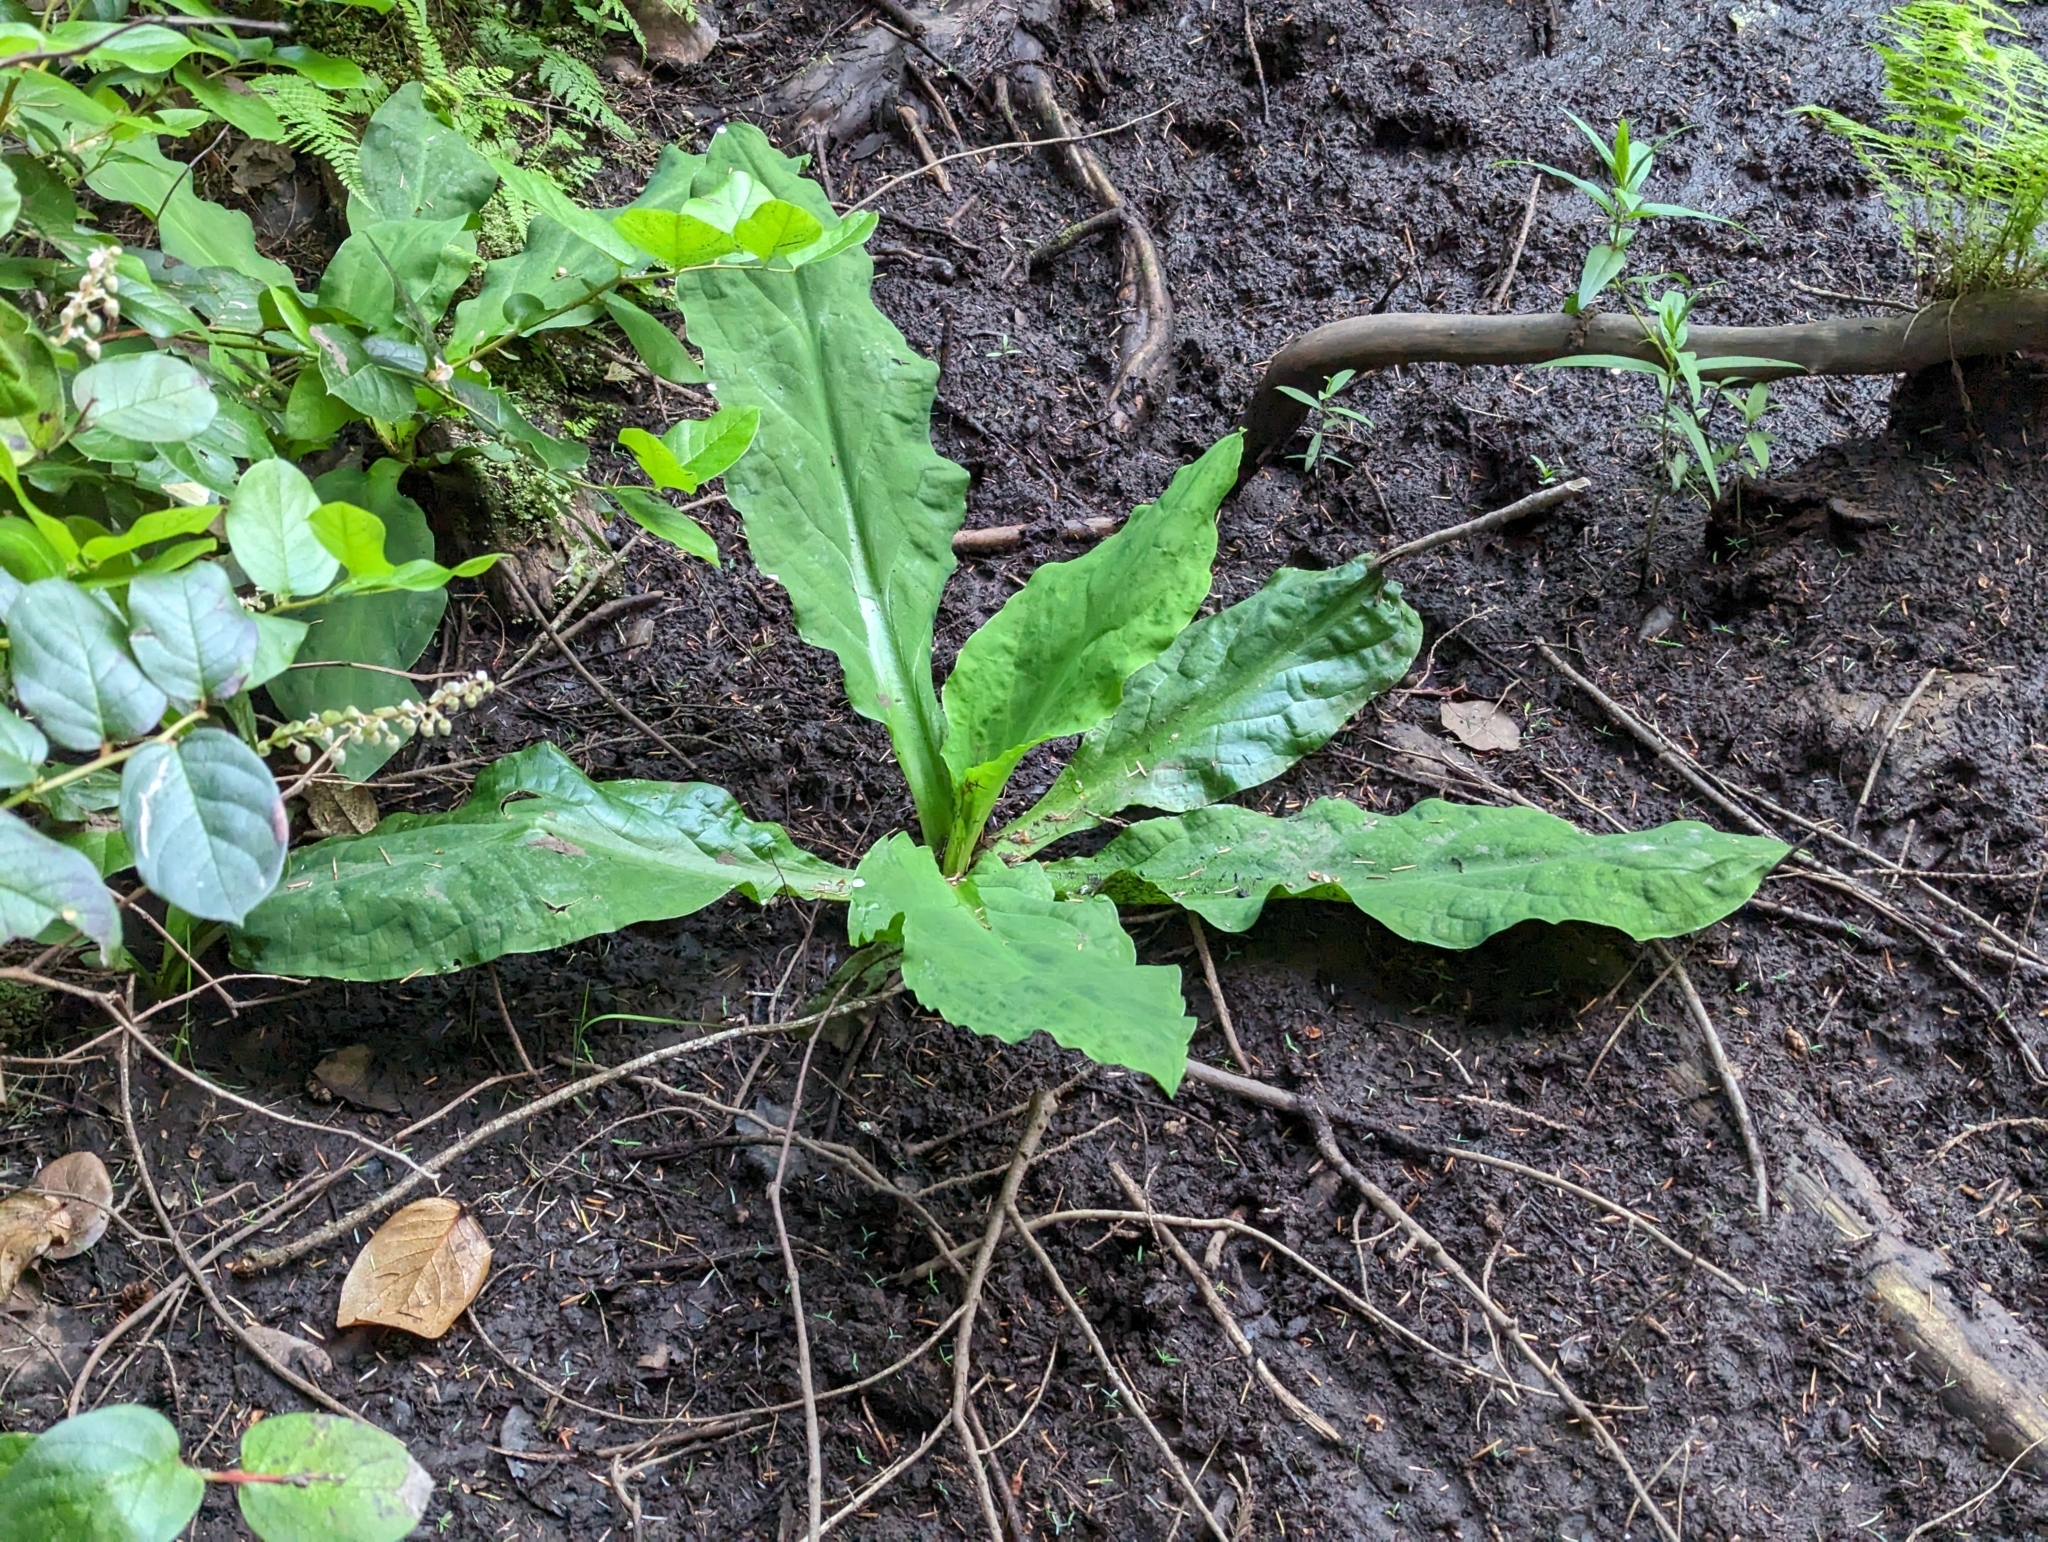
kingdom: Plantae
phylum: Tracheophyta
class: Liliopsida
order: Alismatales
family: Araceae
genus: Lysichiton
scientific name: Lysichiton americanus
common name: American skunk cabbage
